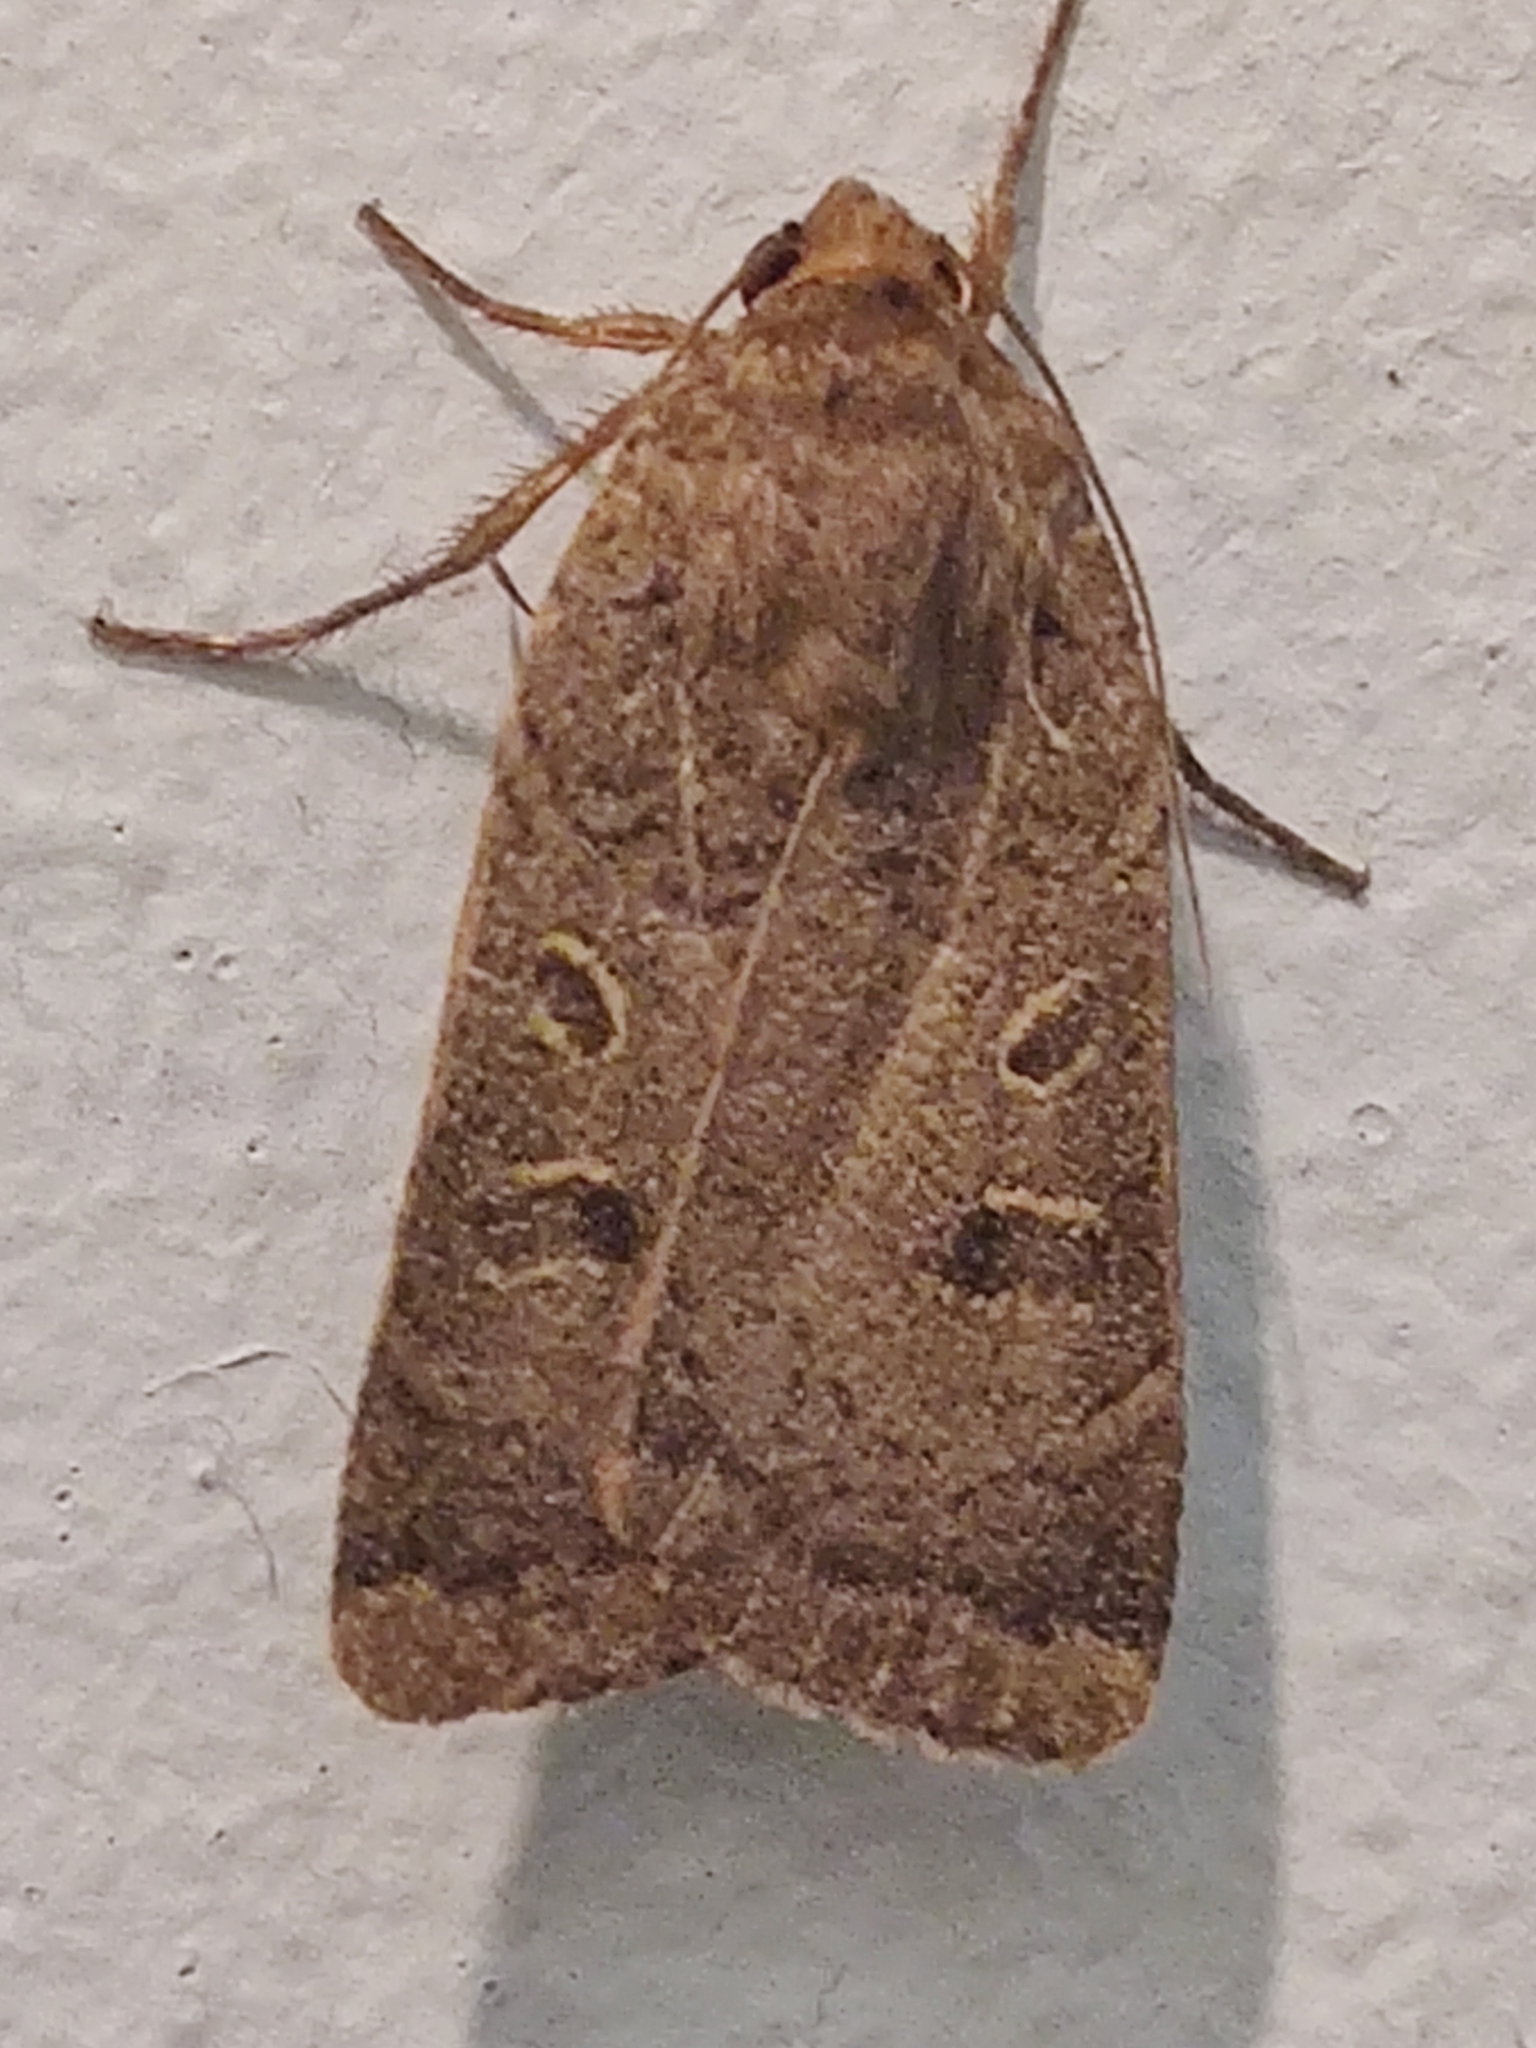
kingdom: Animalia
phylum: Arthropoda
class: Insecta
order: Lepidoptera
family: Noctuidae
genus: Noctua
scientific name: Noctua comes
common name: Lesser yellow underwing
